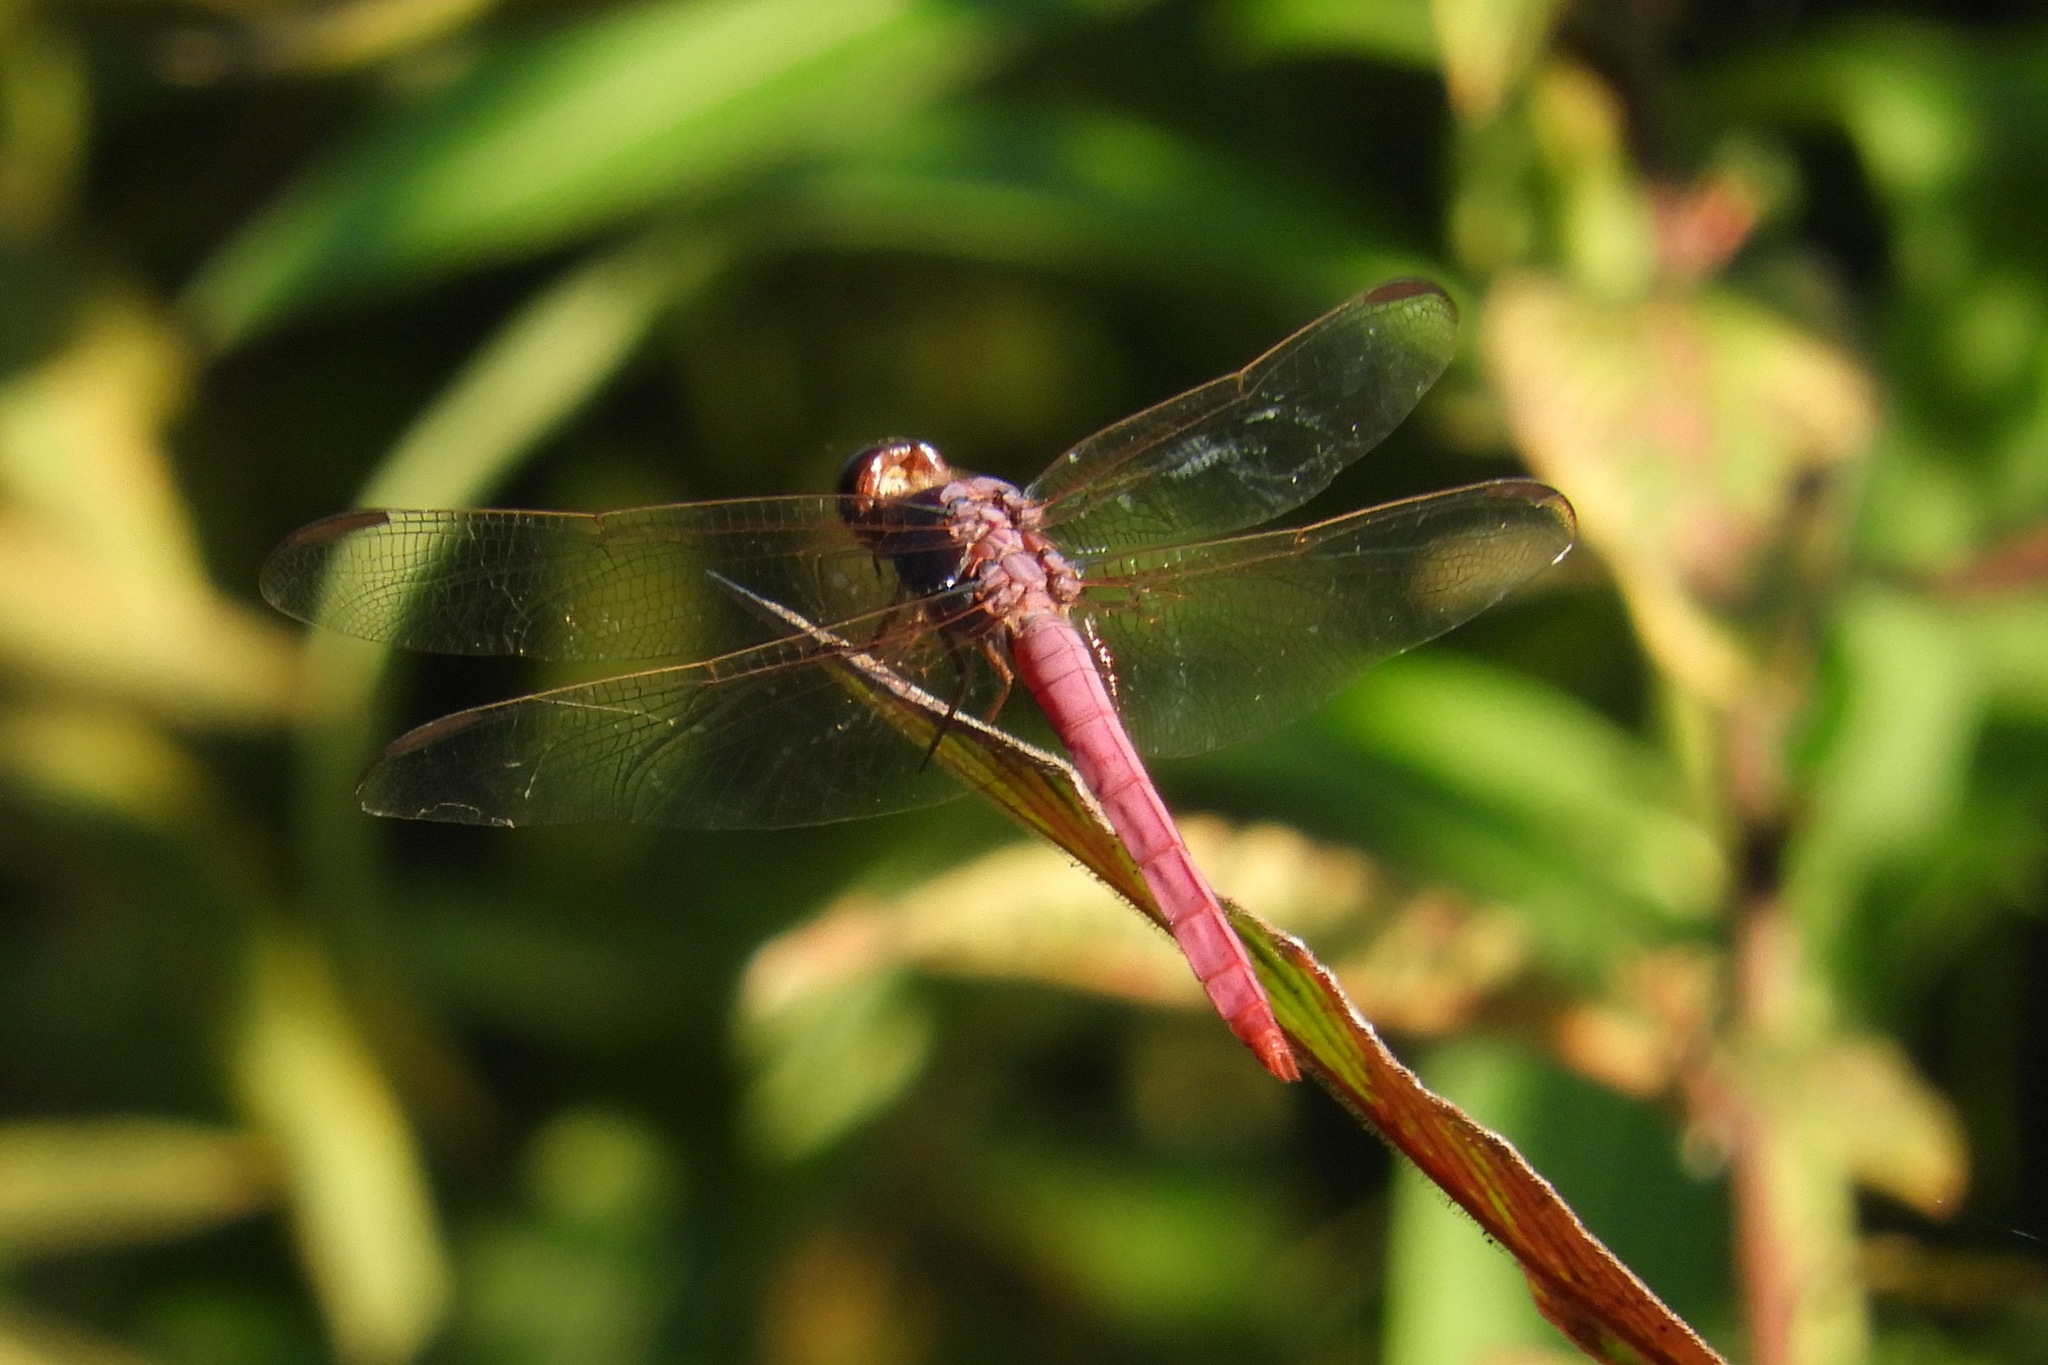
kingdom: Animalia
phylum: Arthropoda
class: Insecta
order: Odonata
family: Libellulidae
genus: Orthemis
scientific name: Orthemis ferruginea
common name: Roseate skimmer
